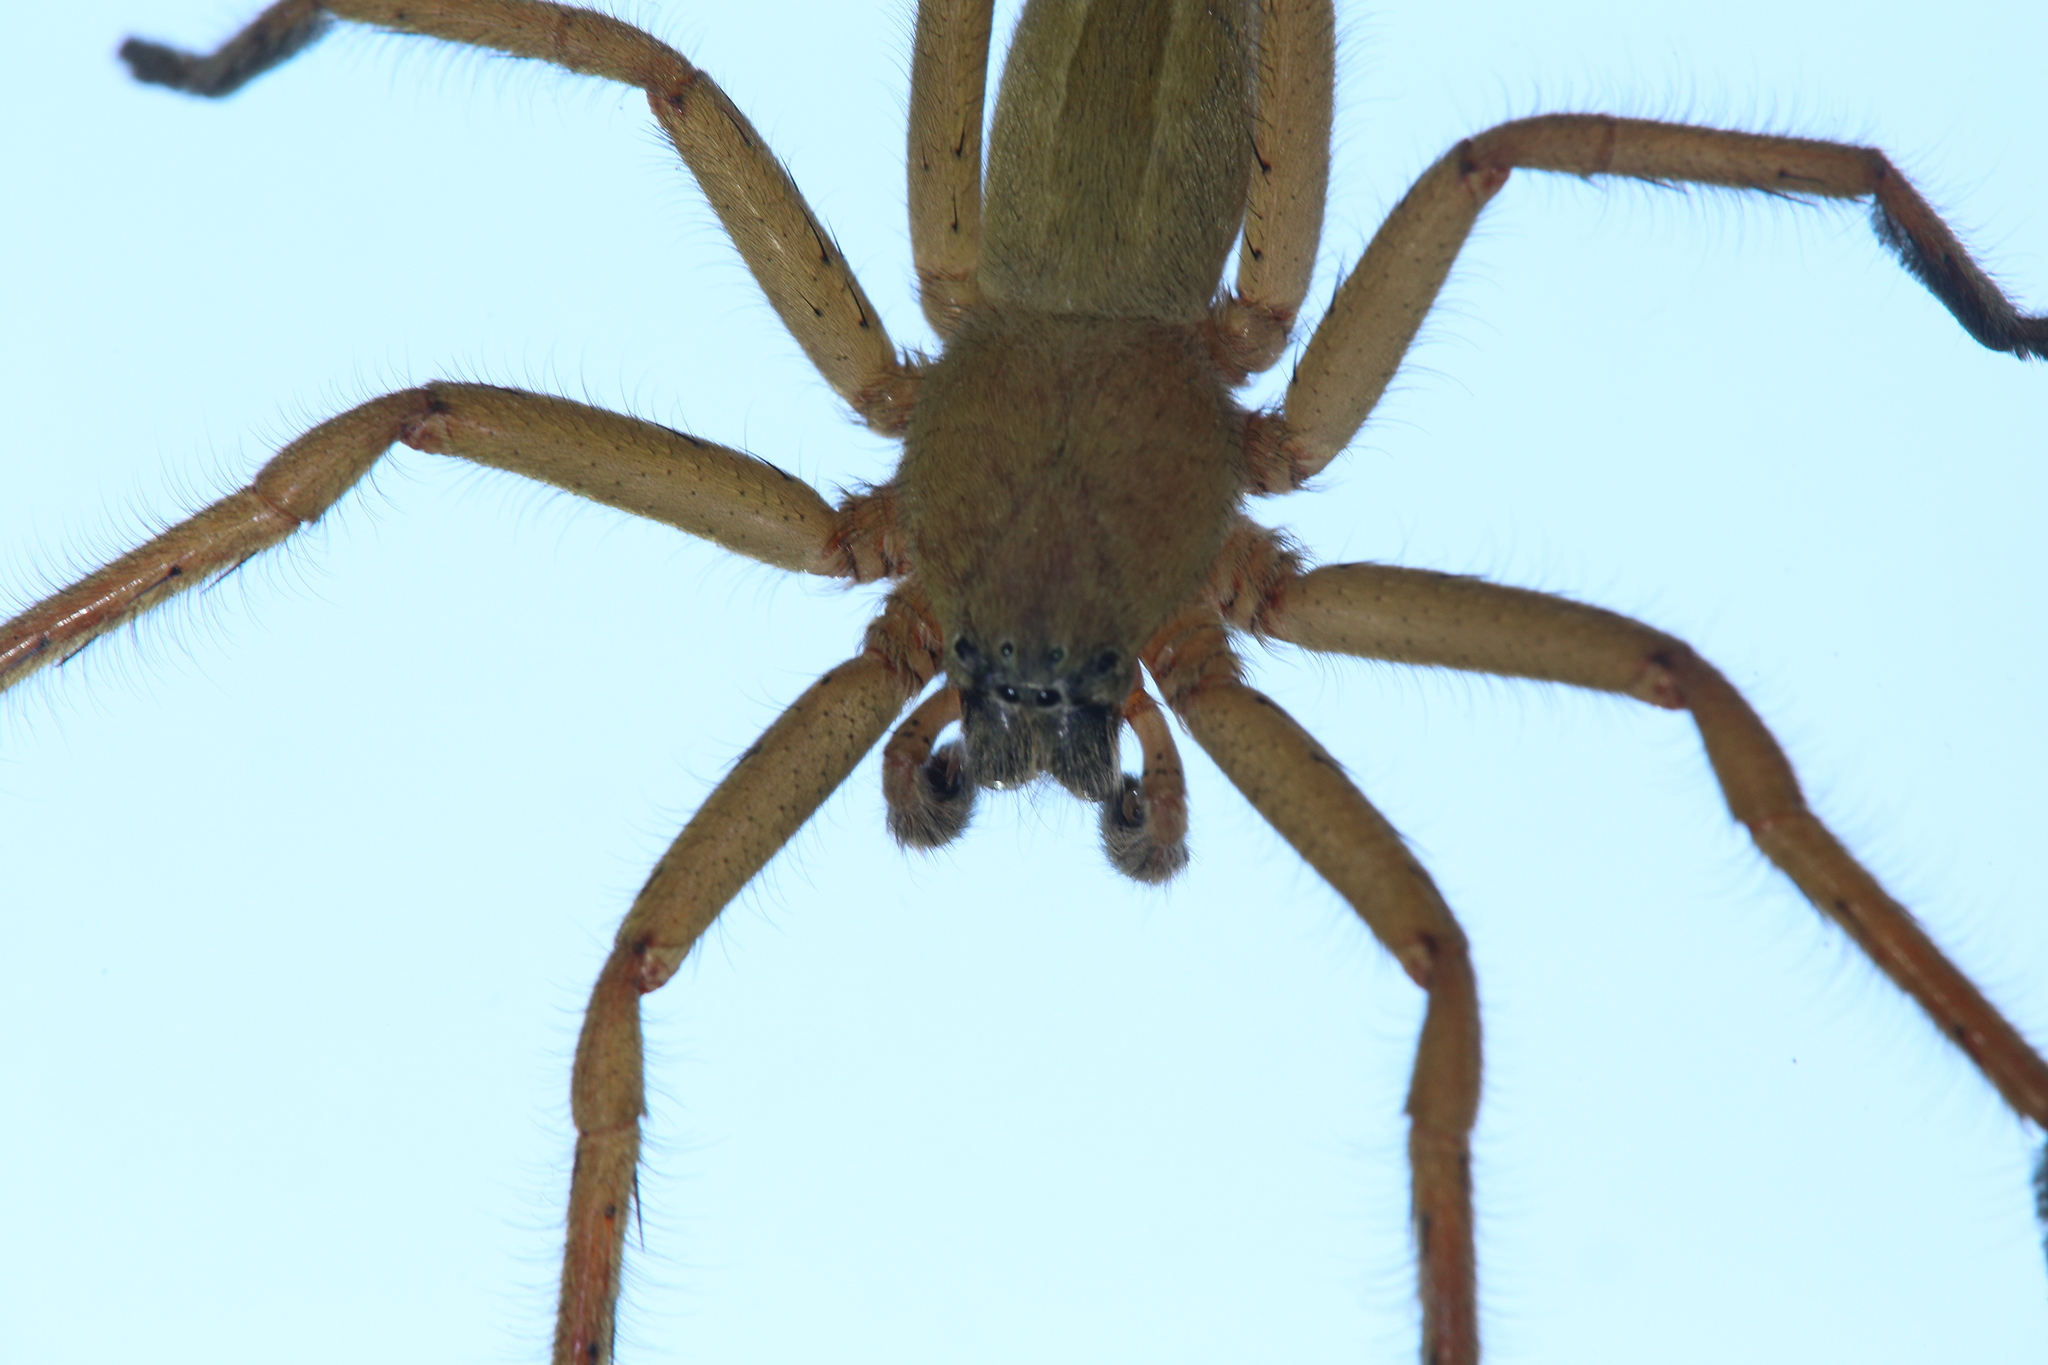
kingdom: Animalia
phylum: Arthropoda
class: Arachnida
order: Araneae
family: Sparassidae
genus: Zachria
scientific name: Zachria flavicoma
